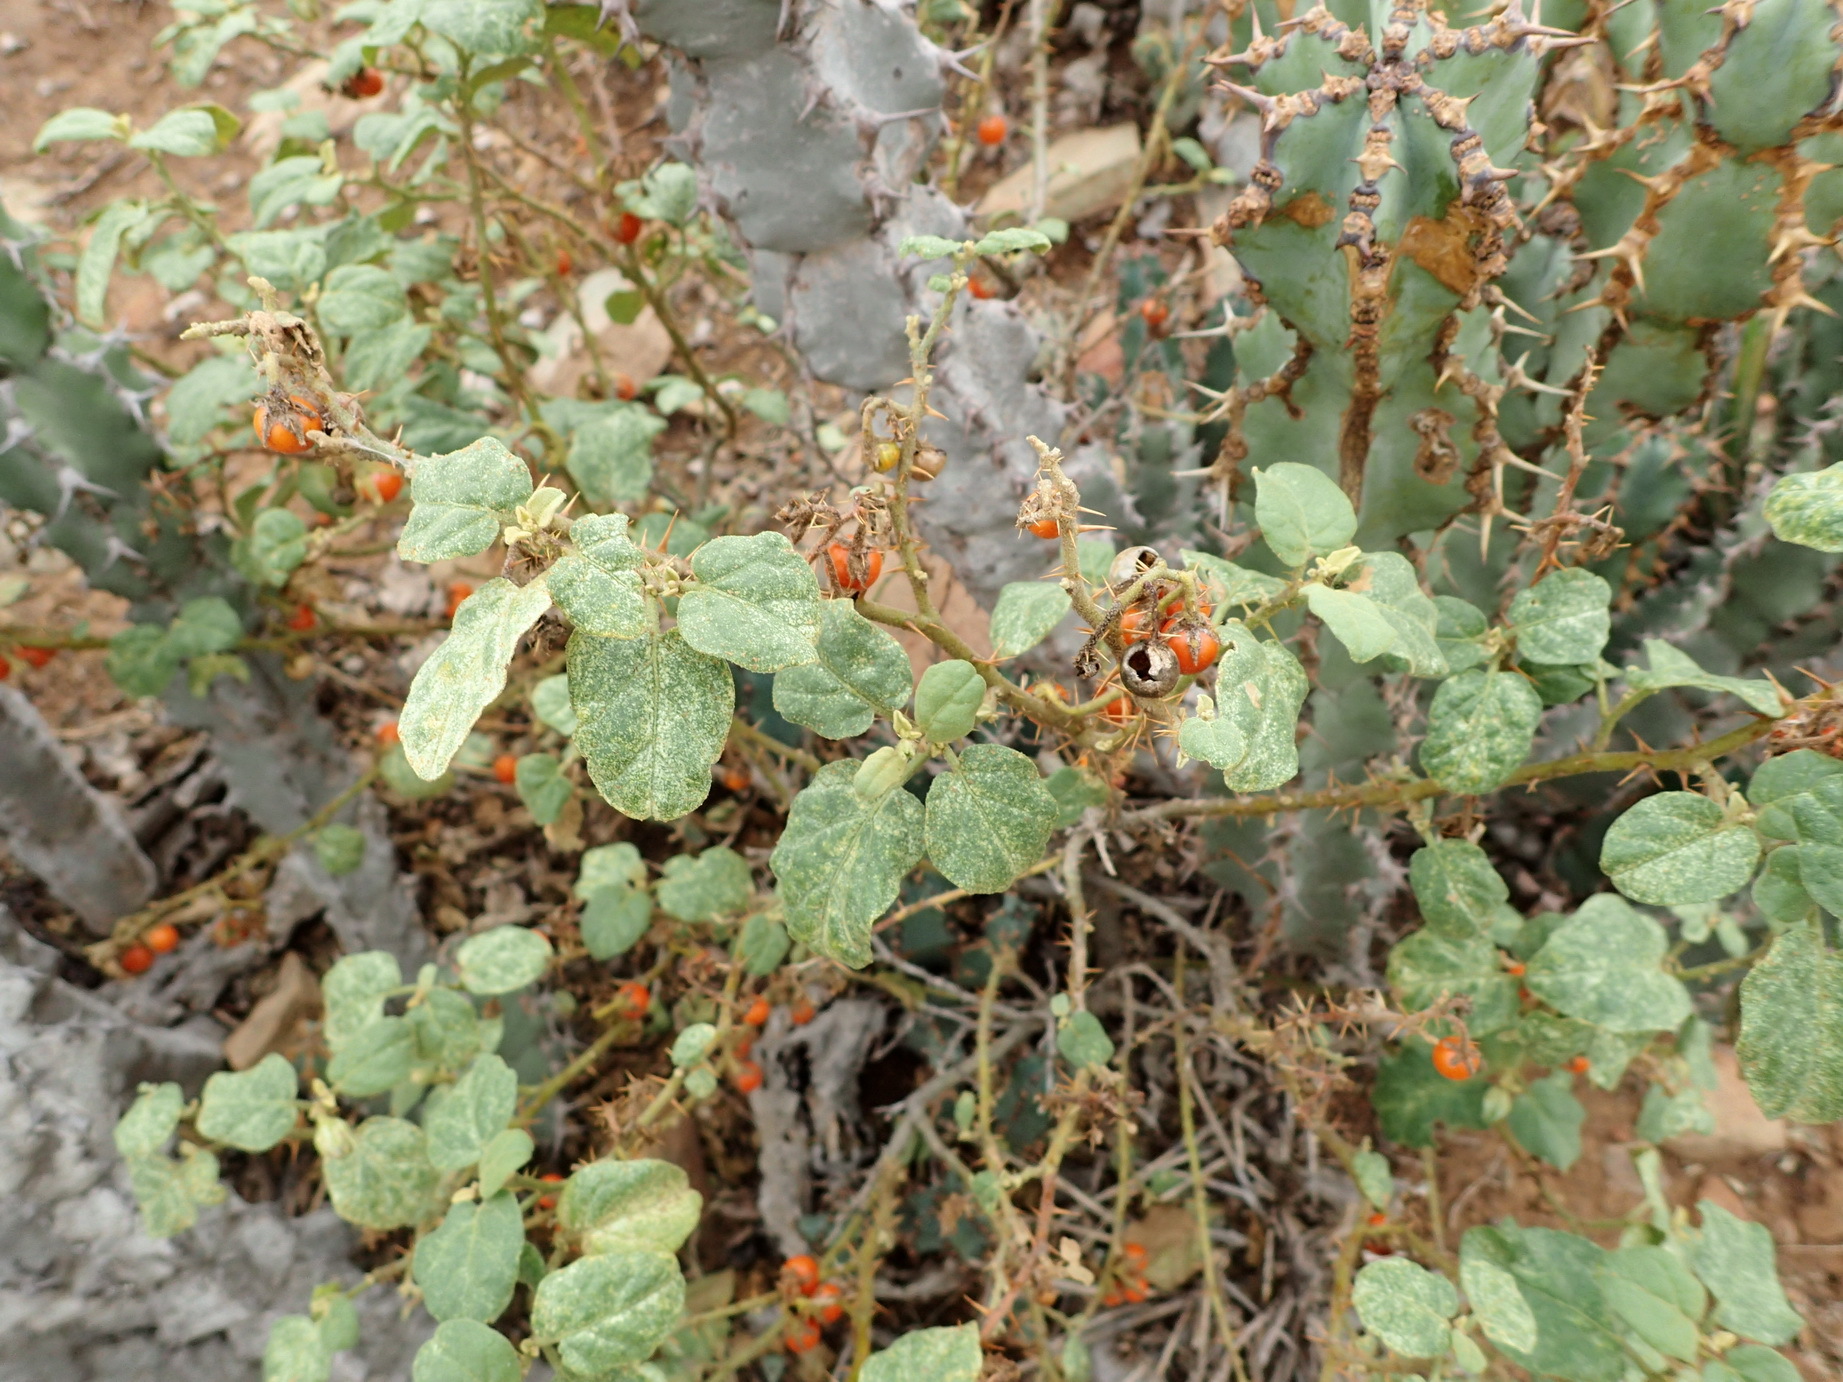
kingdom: Plantae
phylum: Tracheophyta
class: Magnoliopsida
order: Solanales
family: Solanaceae
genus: Solanum
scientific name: Solanum tomentosum
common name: Wild aubergine
